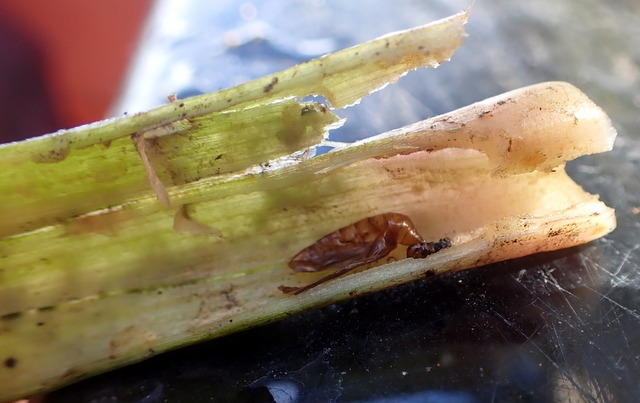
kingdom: Animalia
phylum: Arthropoda
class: Insecta
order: Coleoptera
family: Chrysomelidae
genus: Agasicles
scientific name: Agasicles hygrophila
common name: Alligatorweed flea beetle
